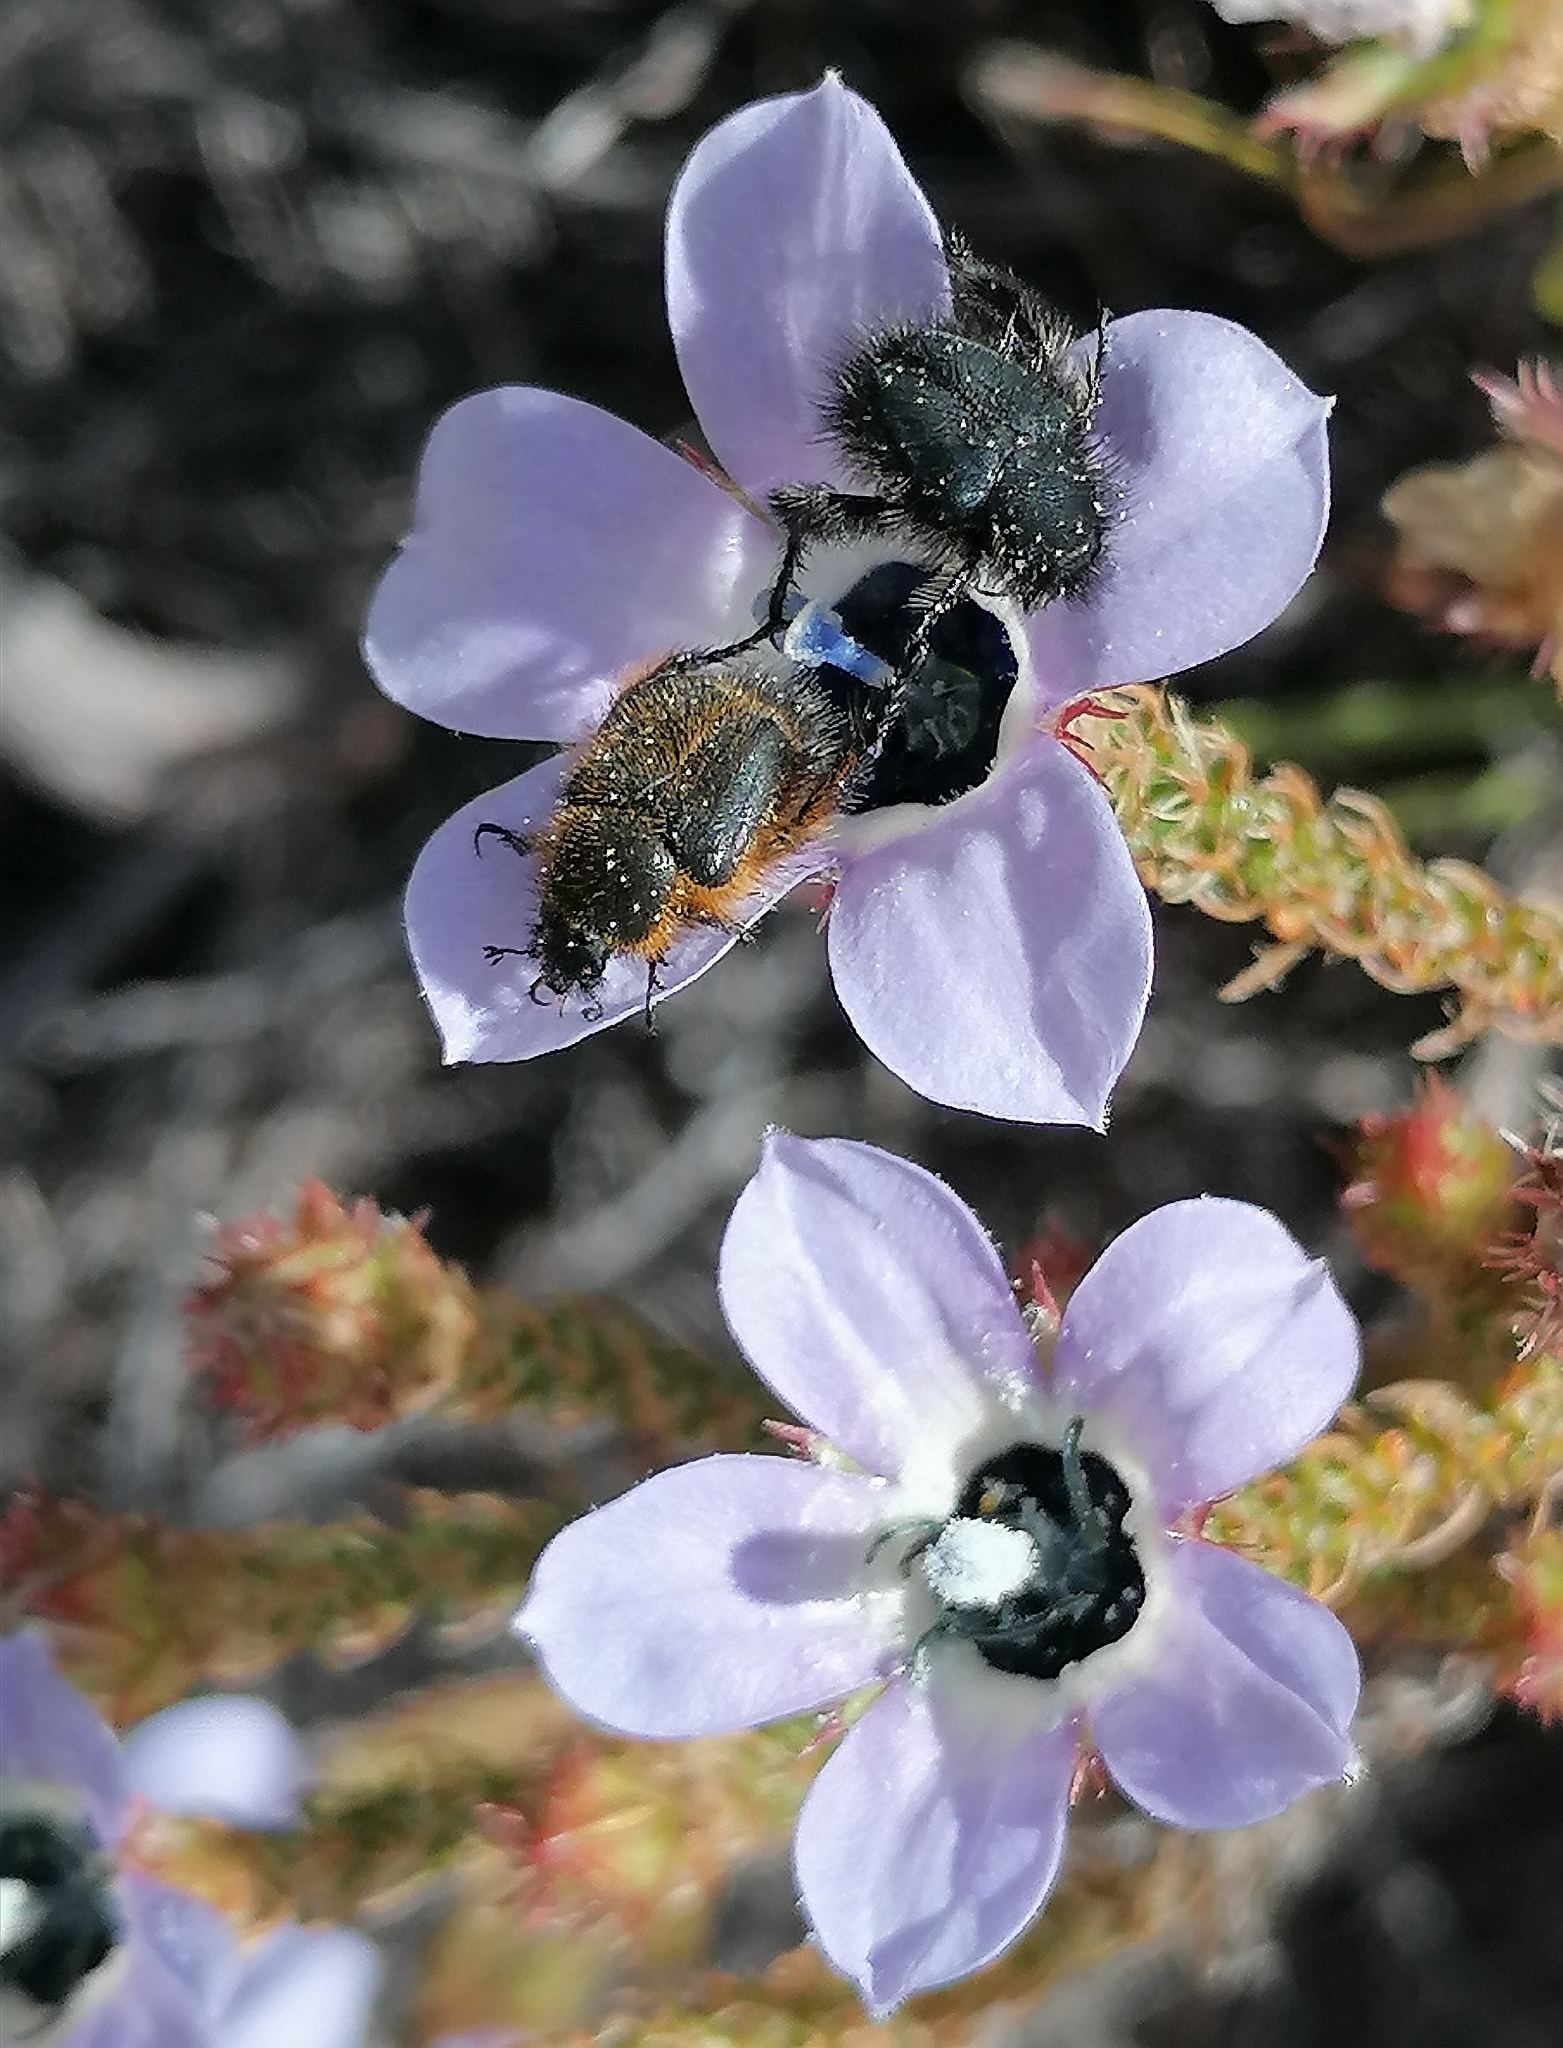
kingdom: Plantae
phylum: Tracheophyta
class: Magnoliopsida
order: Asterales
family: Campanulaceae
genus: Roella
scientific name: Roella triflora
